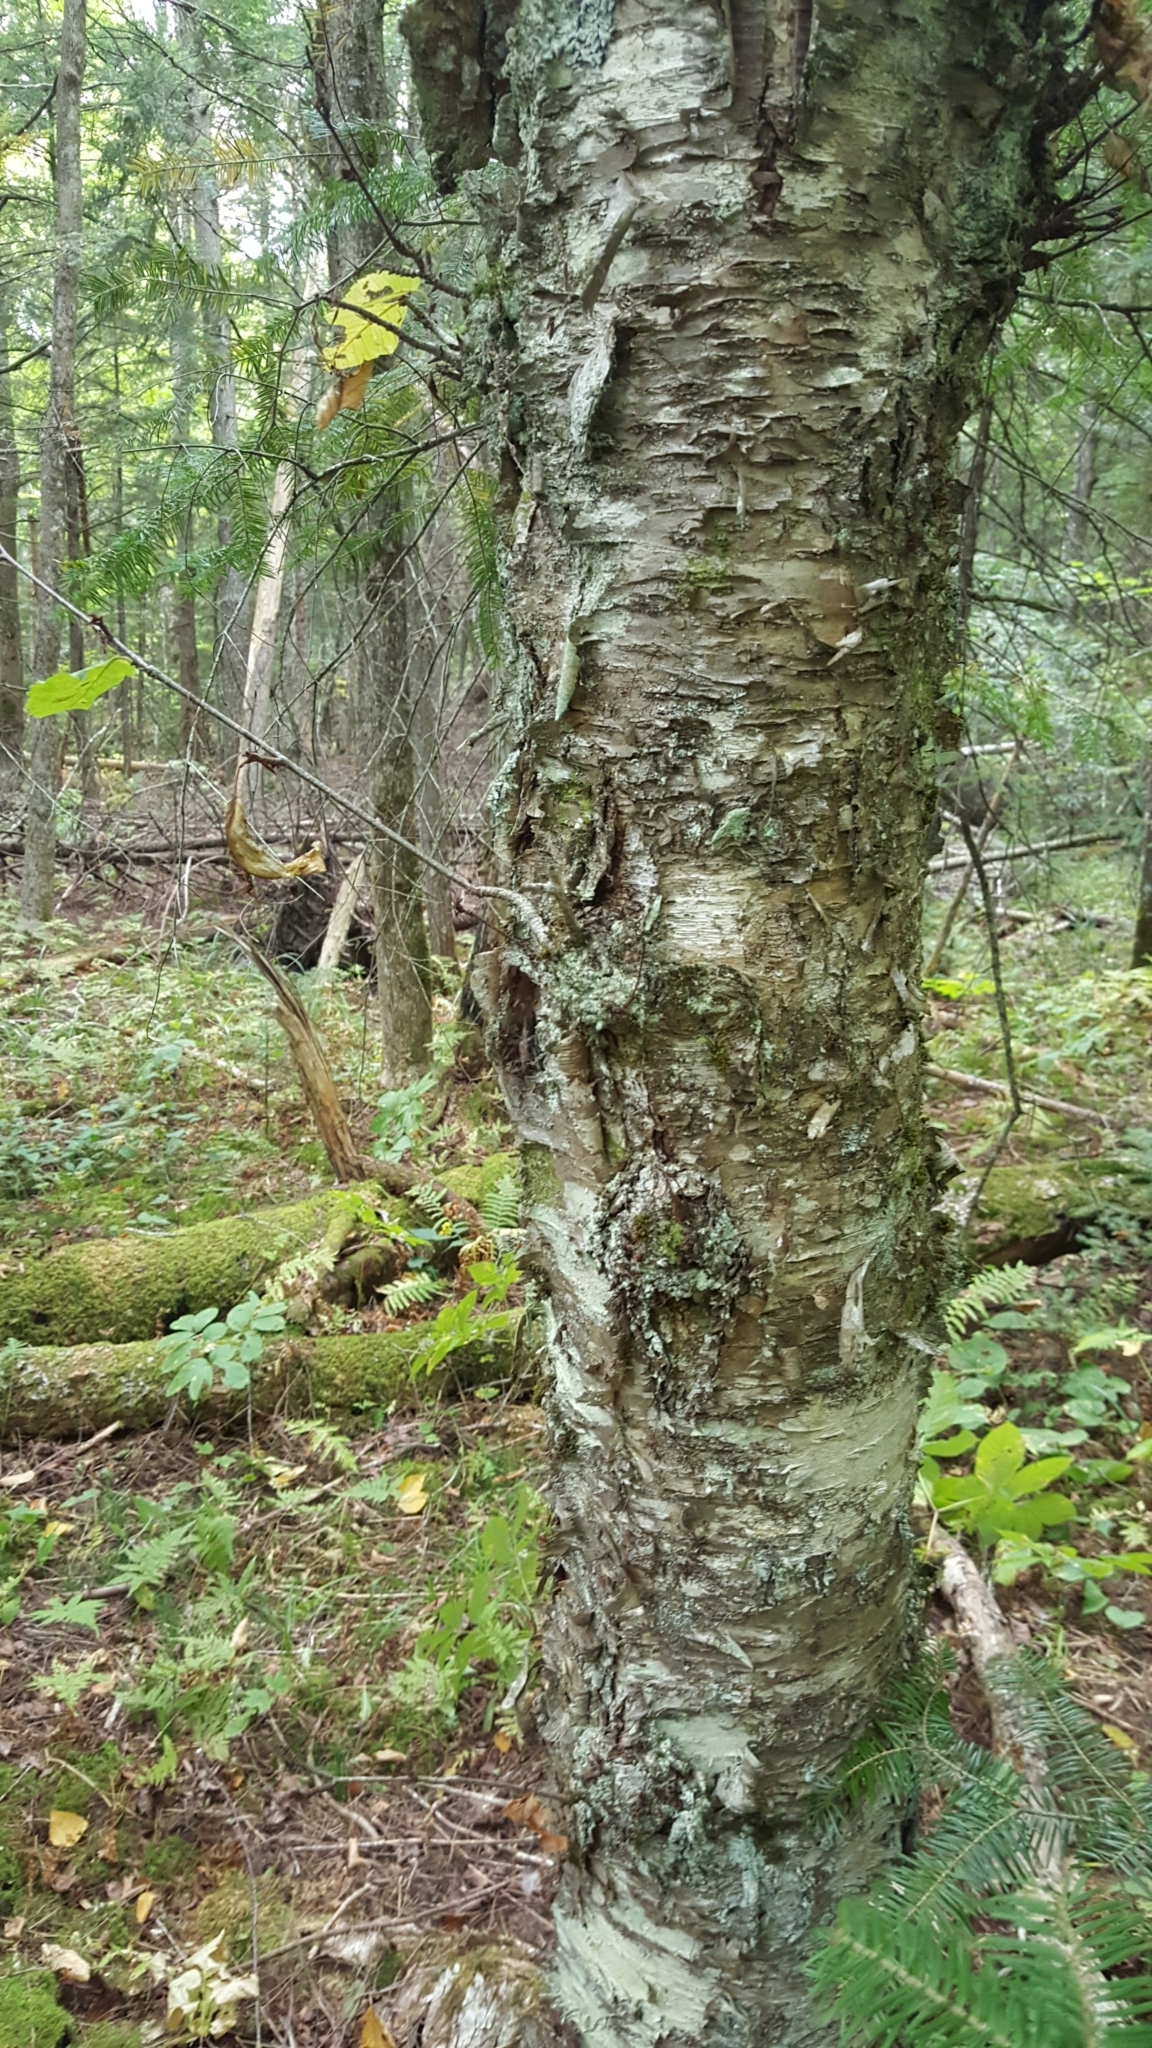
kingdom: Plantae
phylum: Tracheophyta
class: Magnoliopsida
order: Fagales
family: Betulaceae
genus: Betula
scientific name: Betula alleghaniensis
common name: Yellow birch
